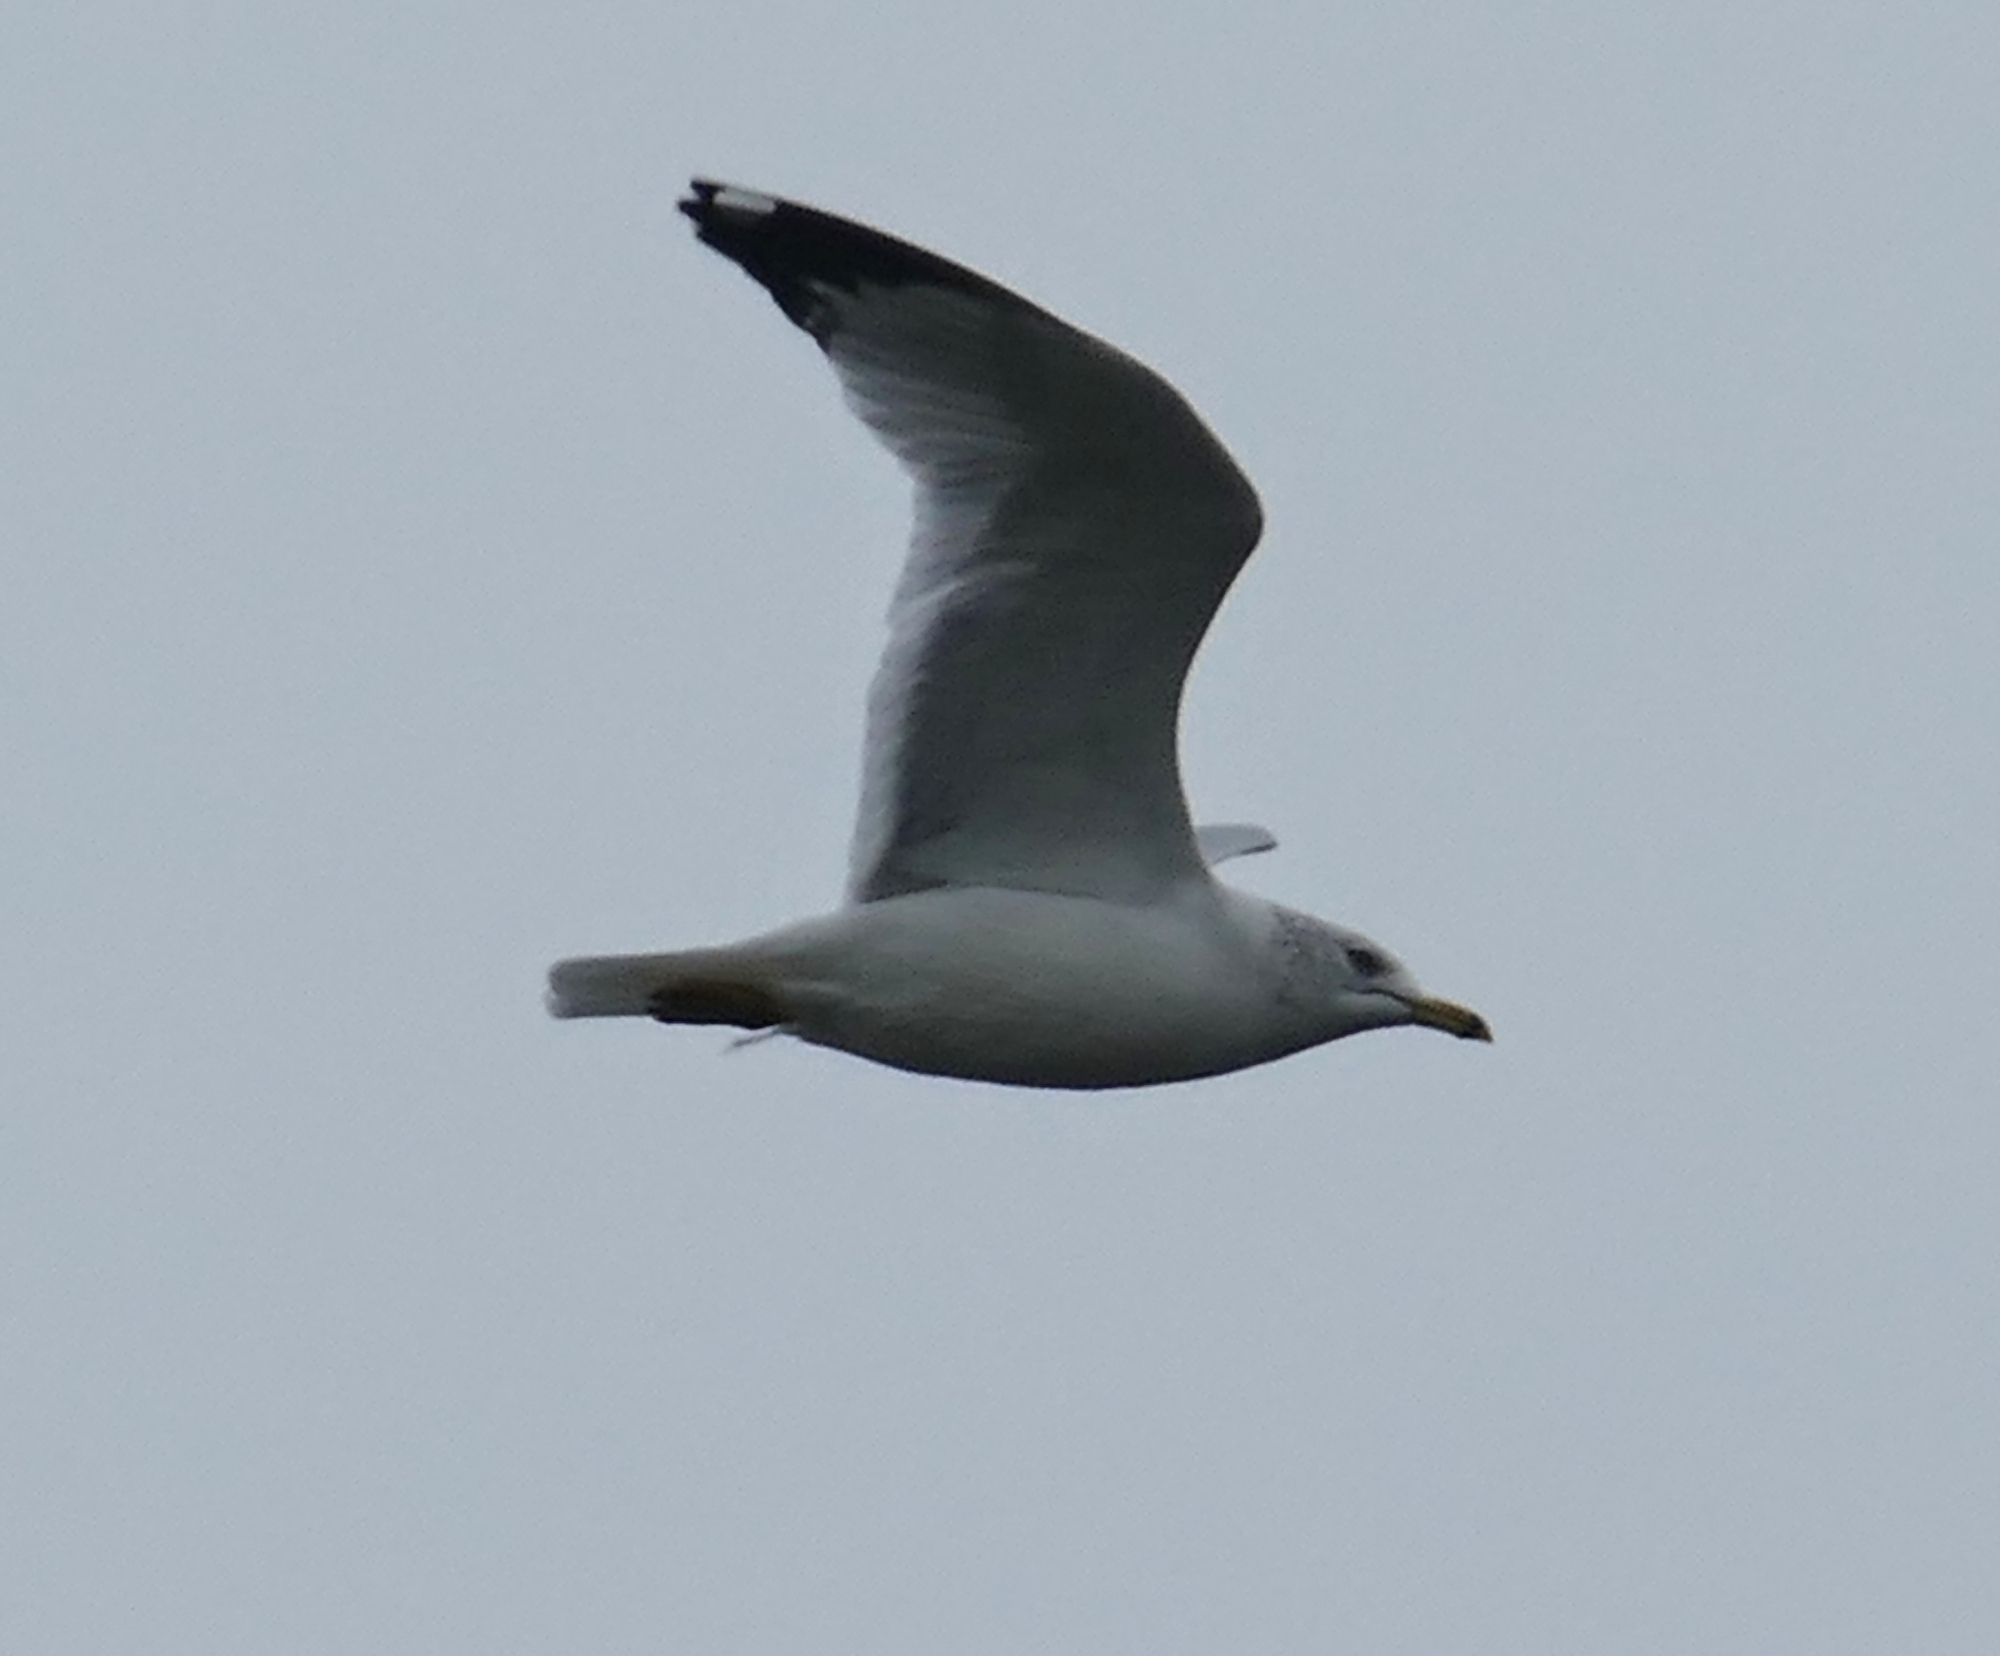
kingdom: Animalia
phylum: Chordata
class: Aves
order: Charadriiformes
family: Laridae
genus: Larus
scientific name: Larus delawarensis
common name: Ring-billed gull
